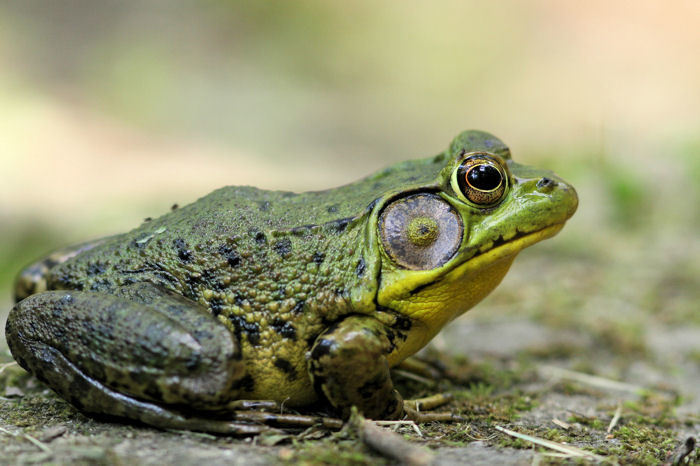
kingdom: Animalia
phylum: Chordata
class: Amphibia
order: Anura
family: Ranidae
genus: Lithobates
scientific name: Lithobates clamitans
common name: Green frog
